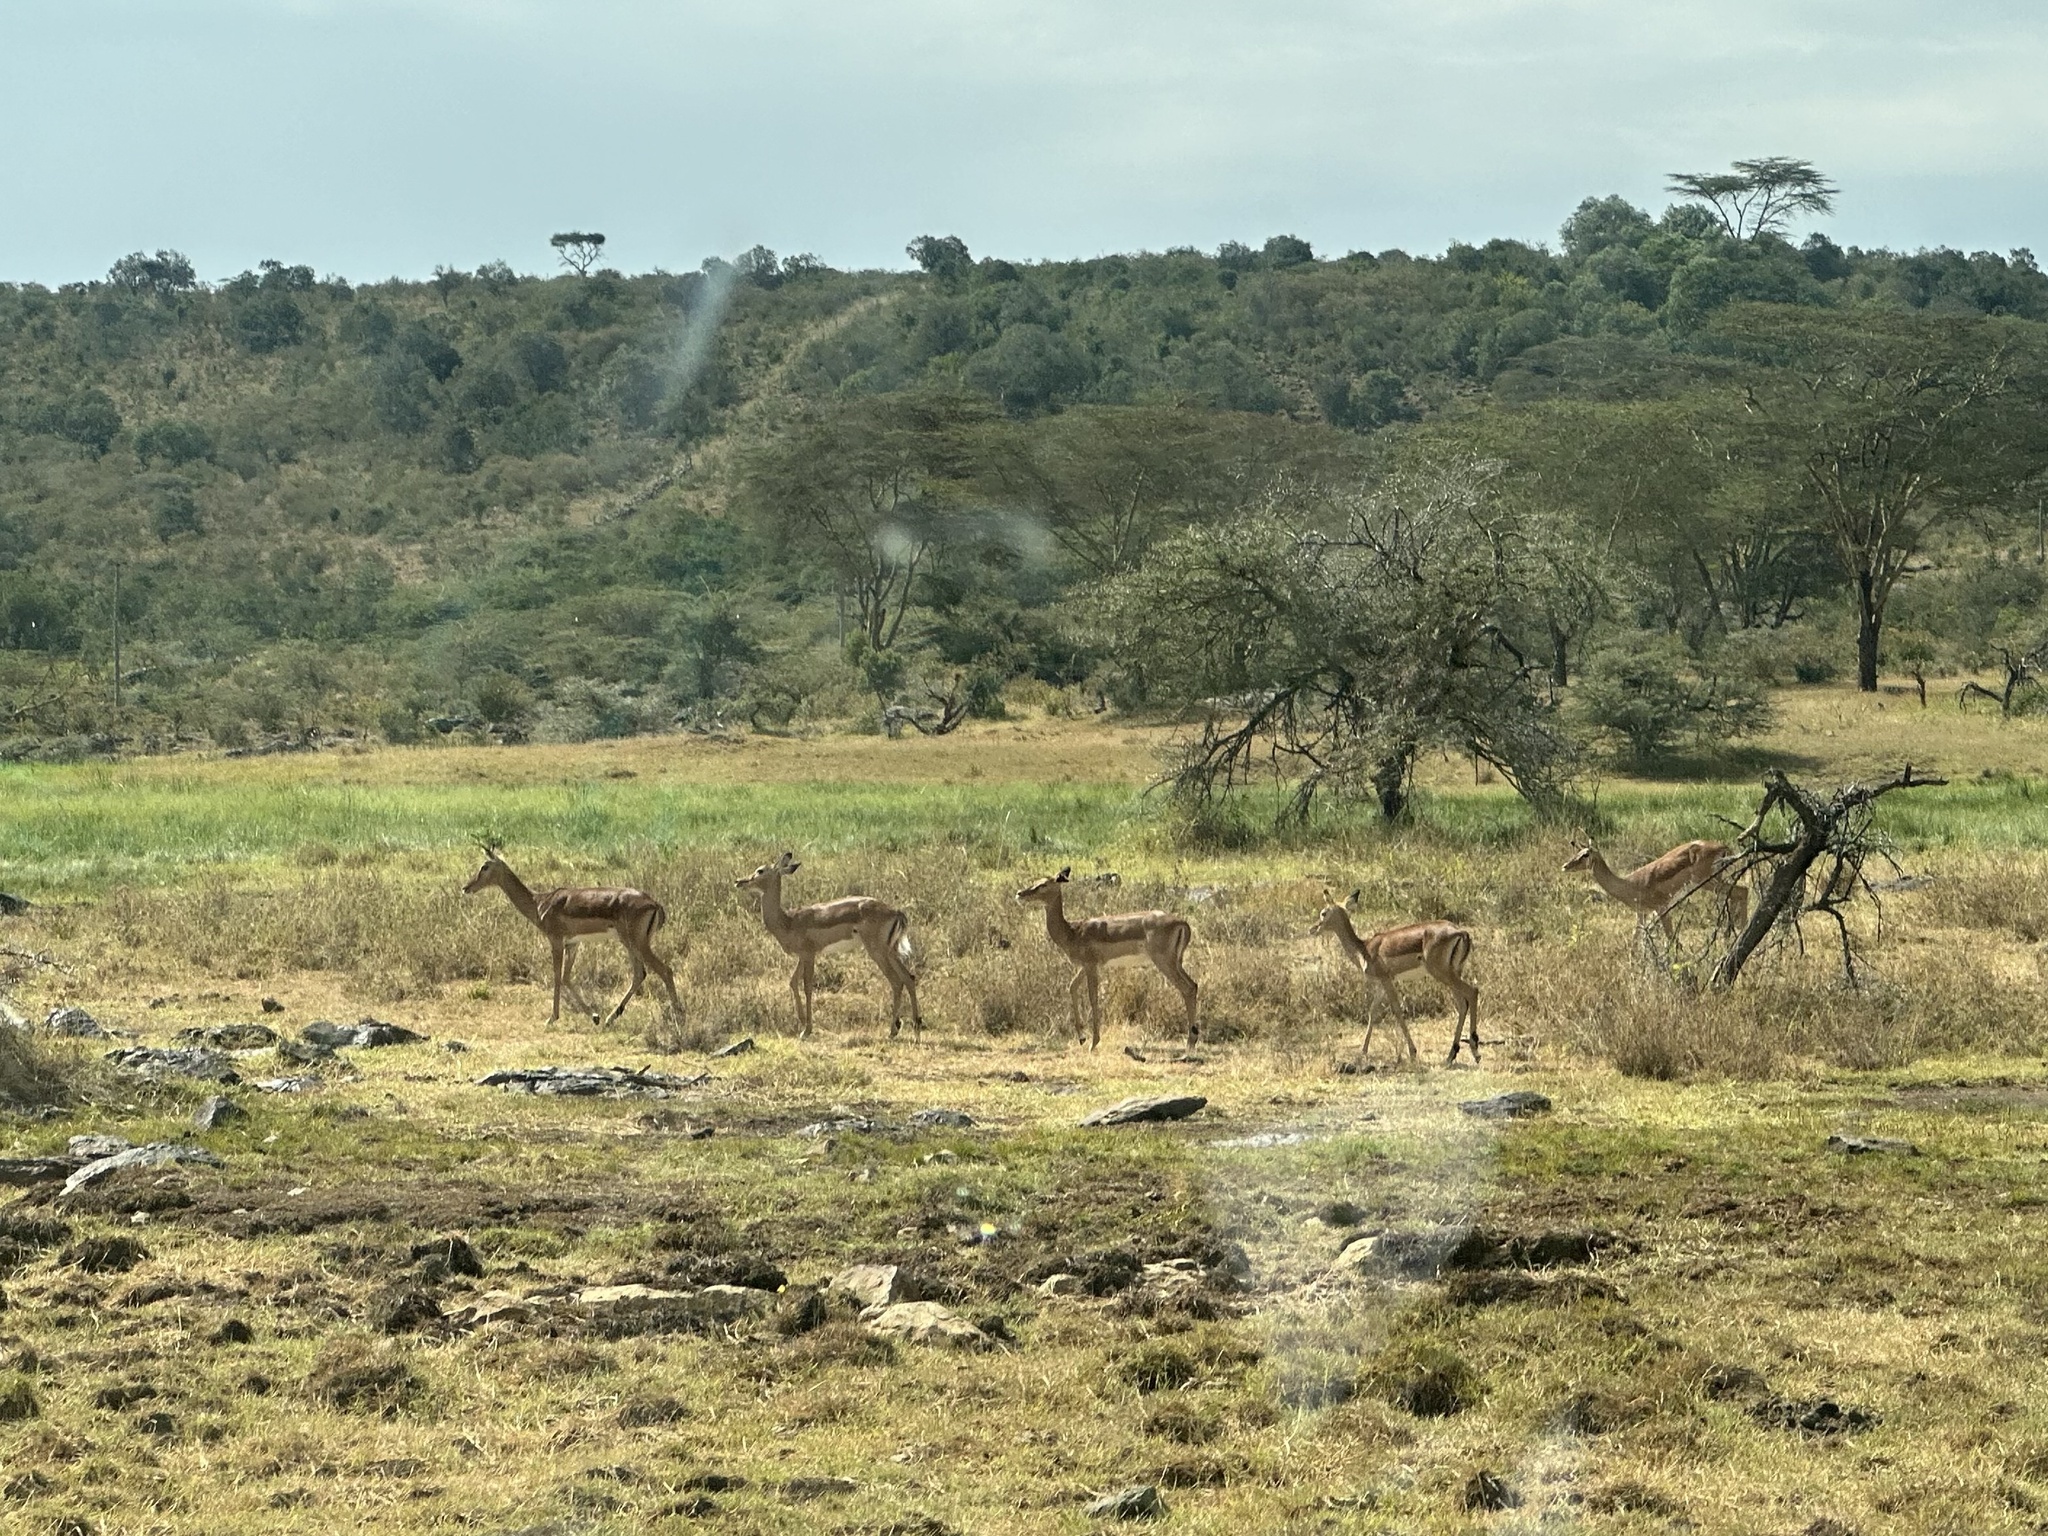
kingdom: Animalia
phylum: Chordata
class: Mammalia
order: Artiodactyla
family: Bovidae
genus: Aepyceros
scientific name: Aepyceros melampus
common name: Impala
